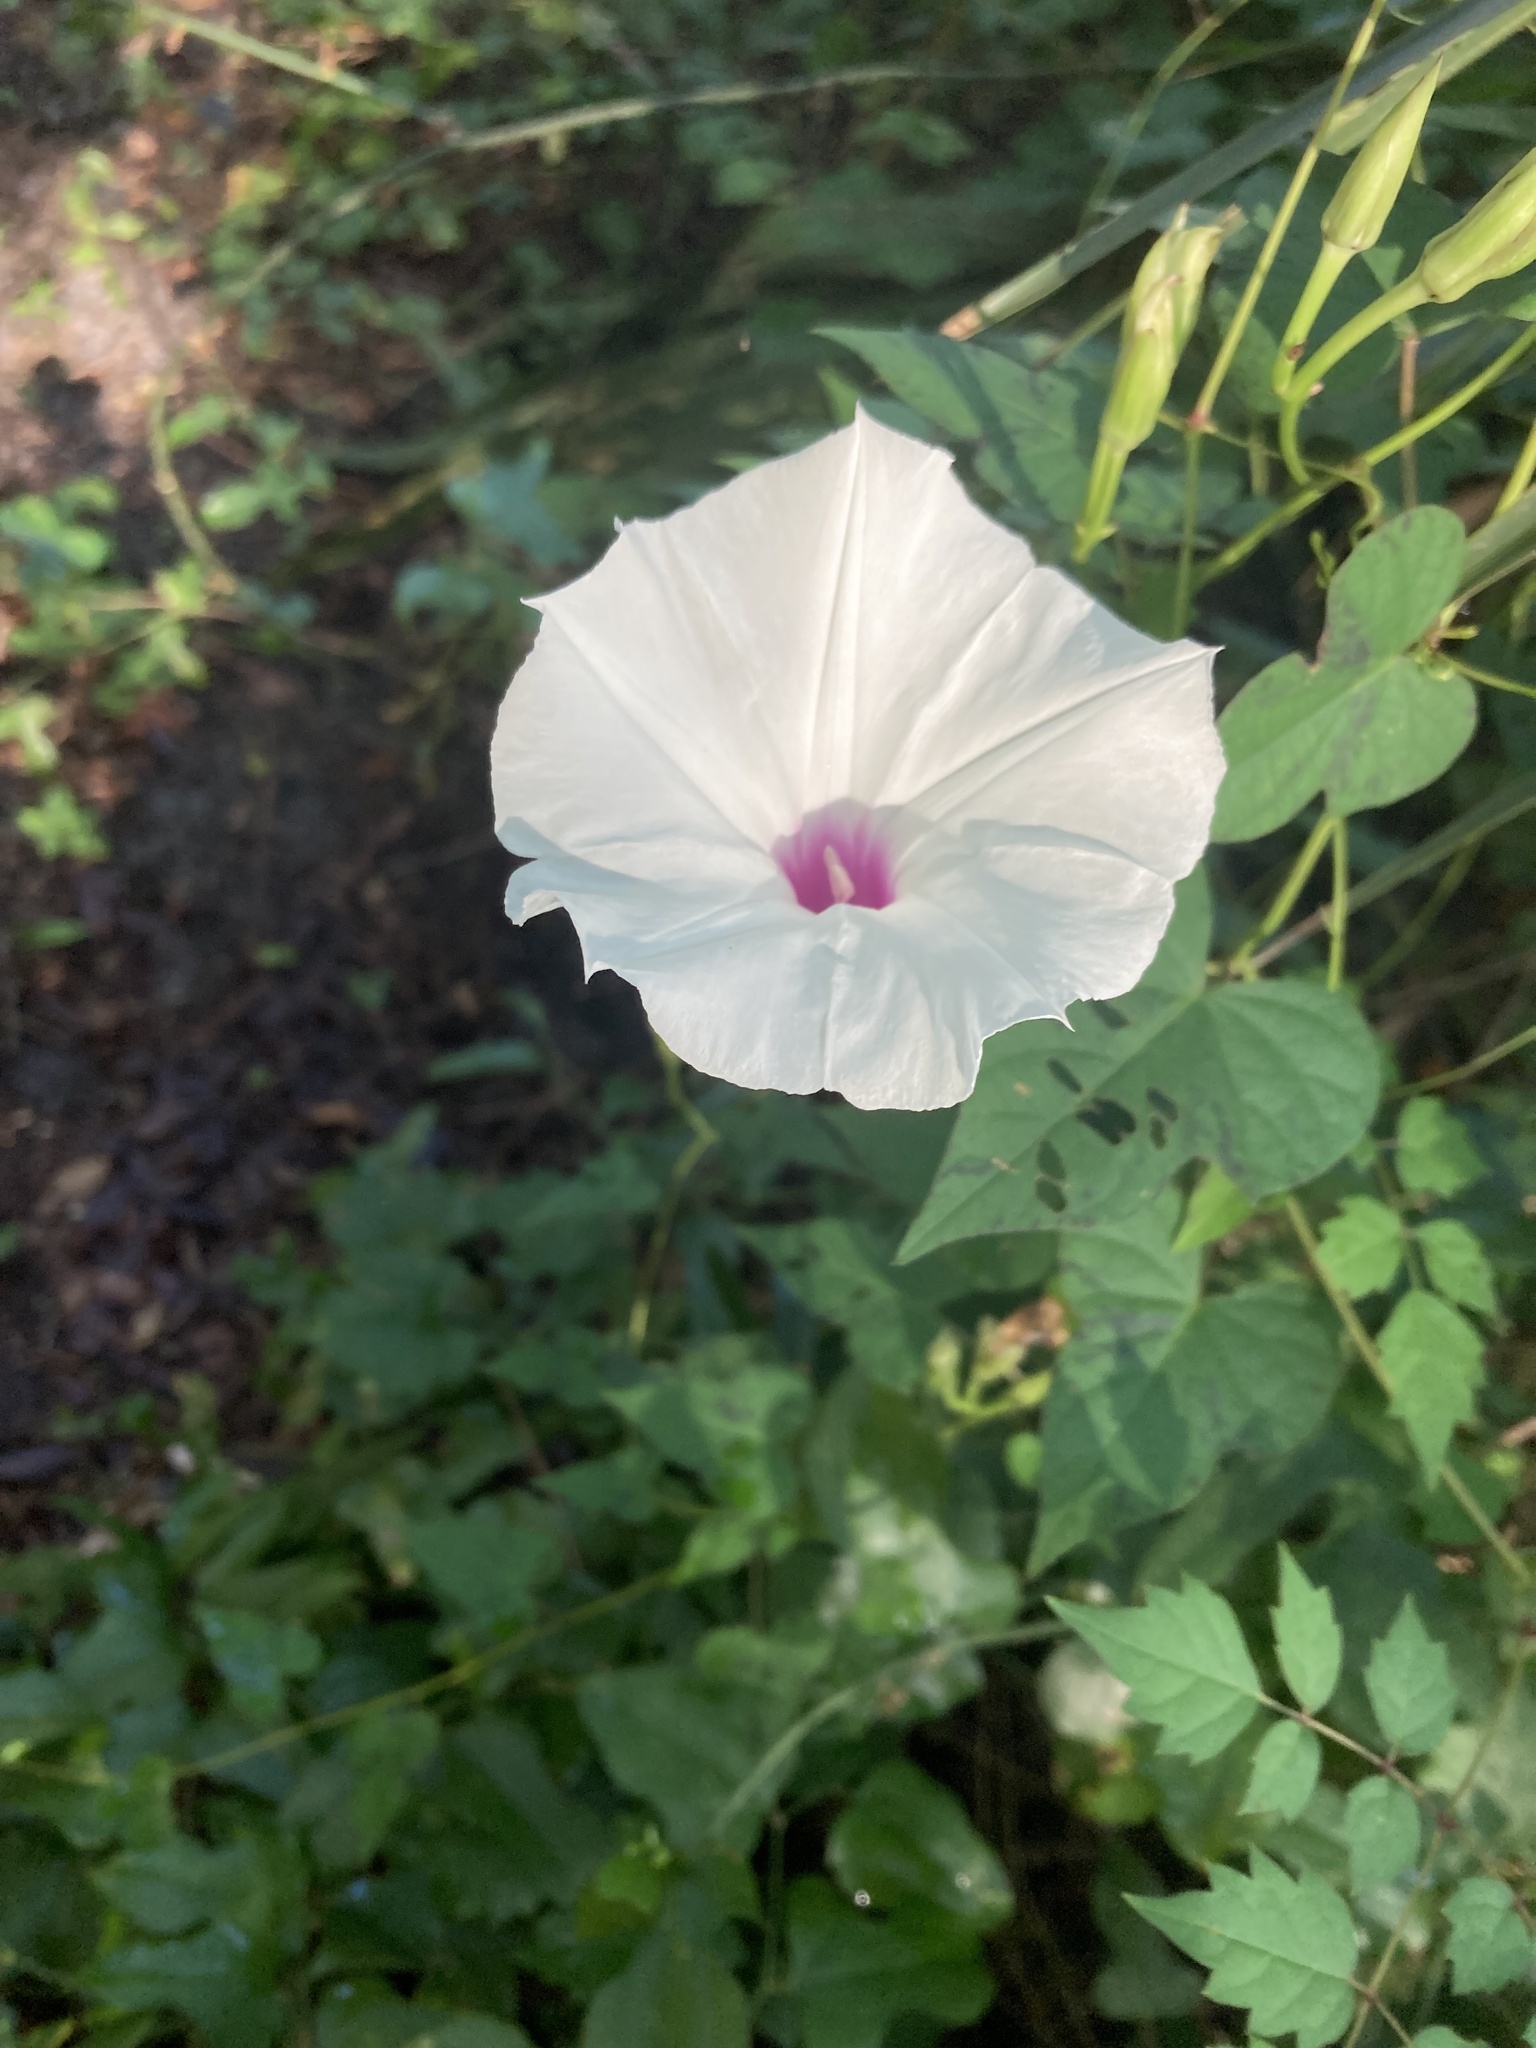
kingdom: Plantae
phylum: Tracheophyta
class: Magnoliopsida
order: Solanales
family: Convolvulaceae
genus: Ipomoea
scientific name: Ipomoea pandurata
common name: Man-of-the-earth
